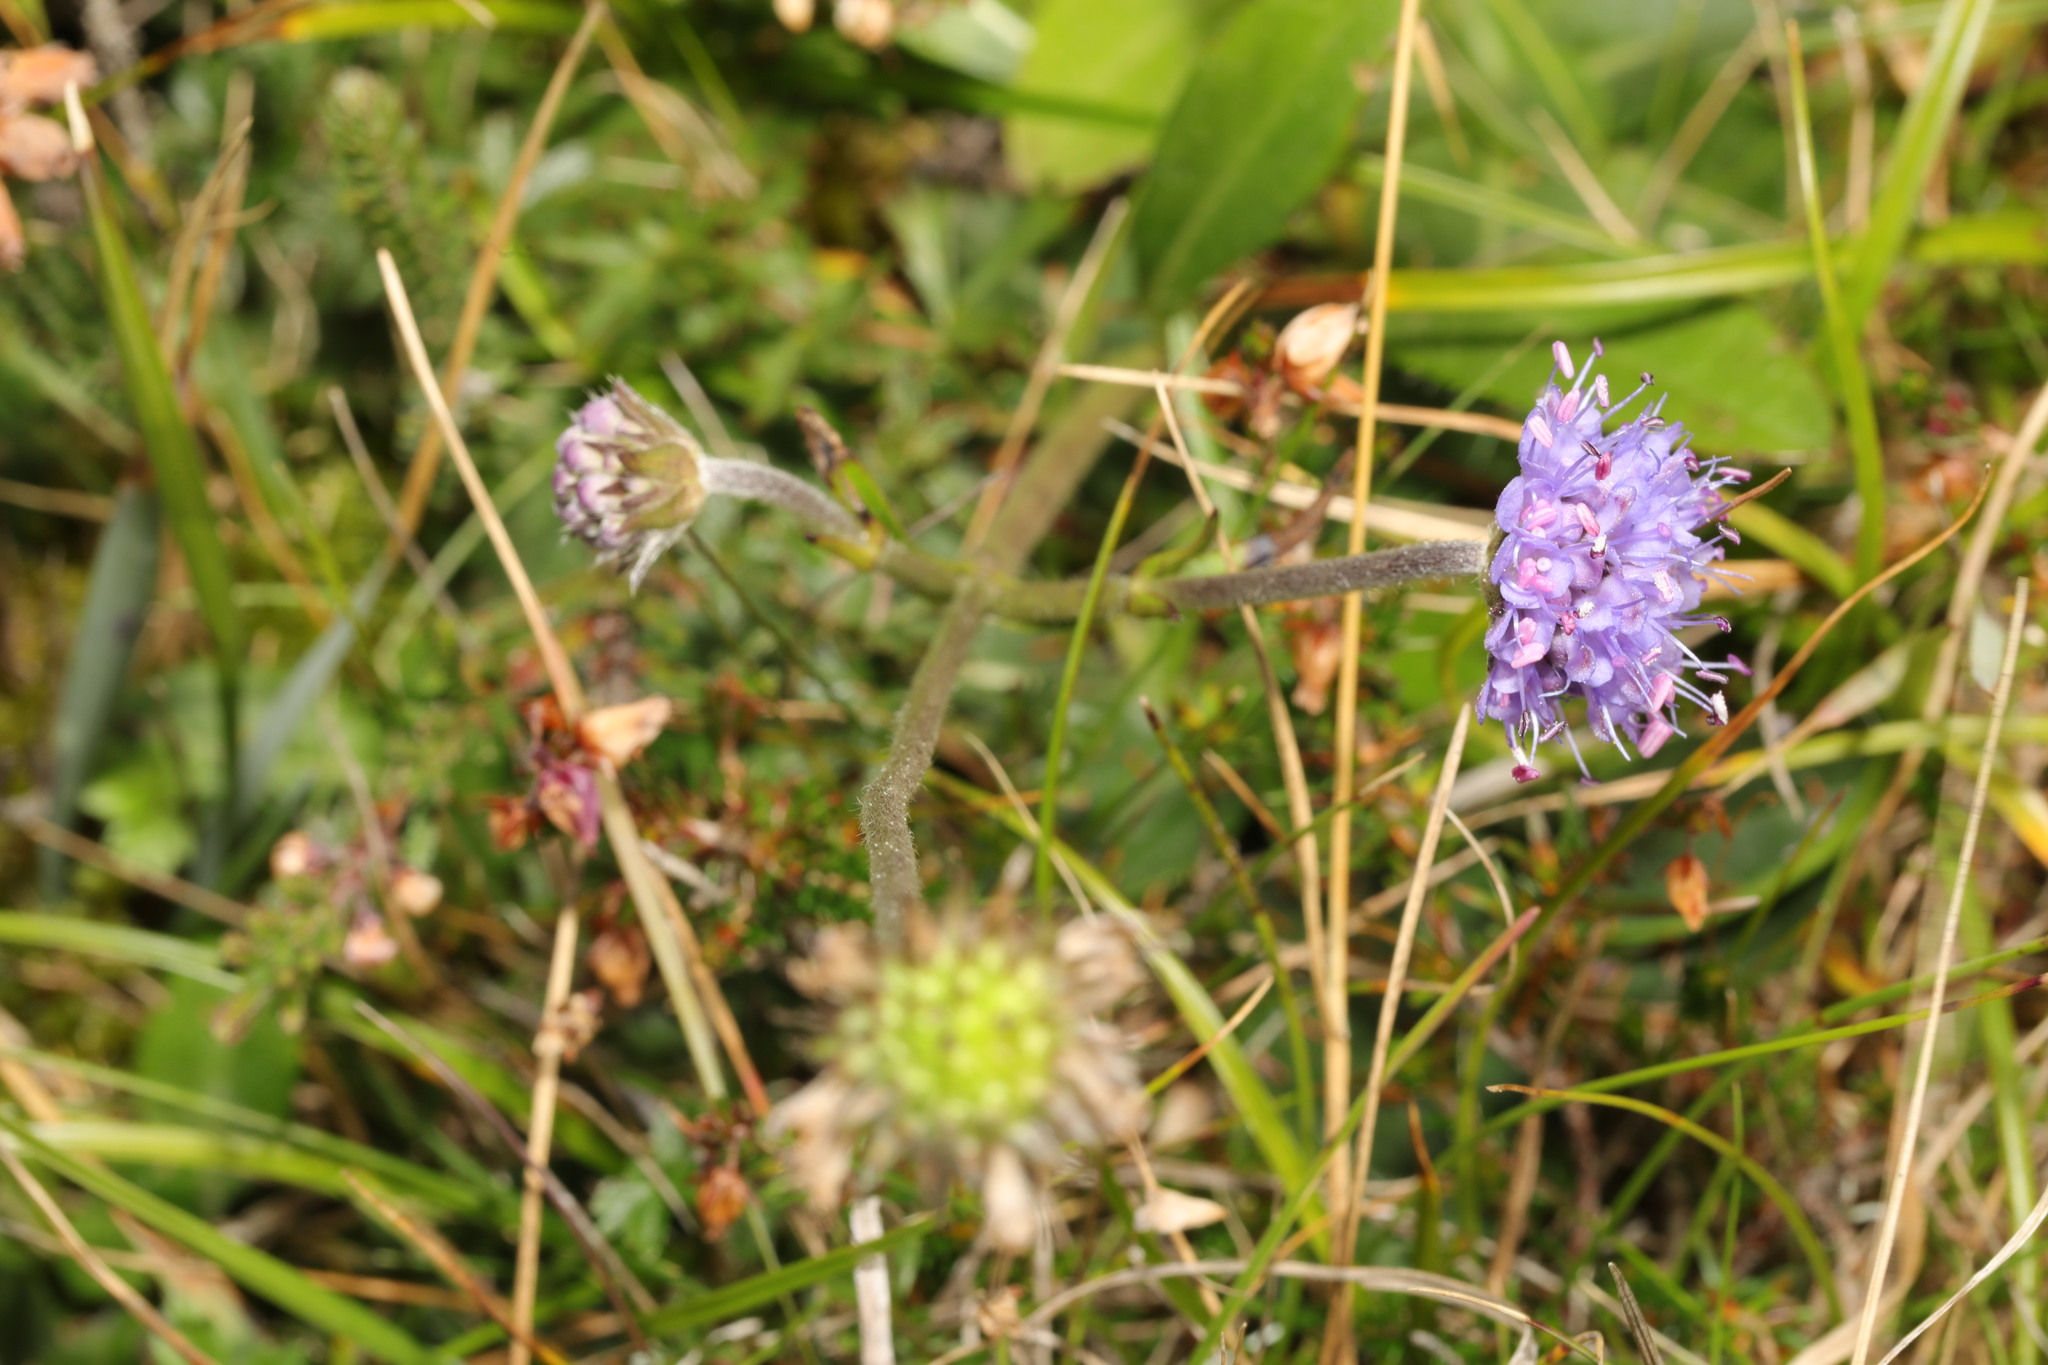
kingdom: Plantae
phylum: Tracheophyta
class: Magnoliopsida
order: Dipsacales
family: Caprifoliaceae
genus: Succisa
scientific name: Succisa pratensis
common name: Devil's-bit
